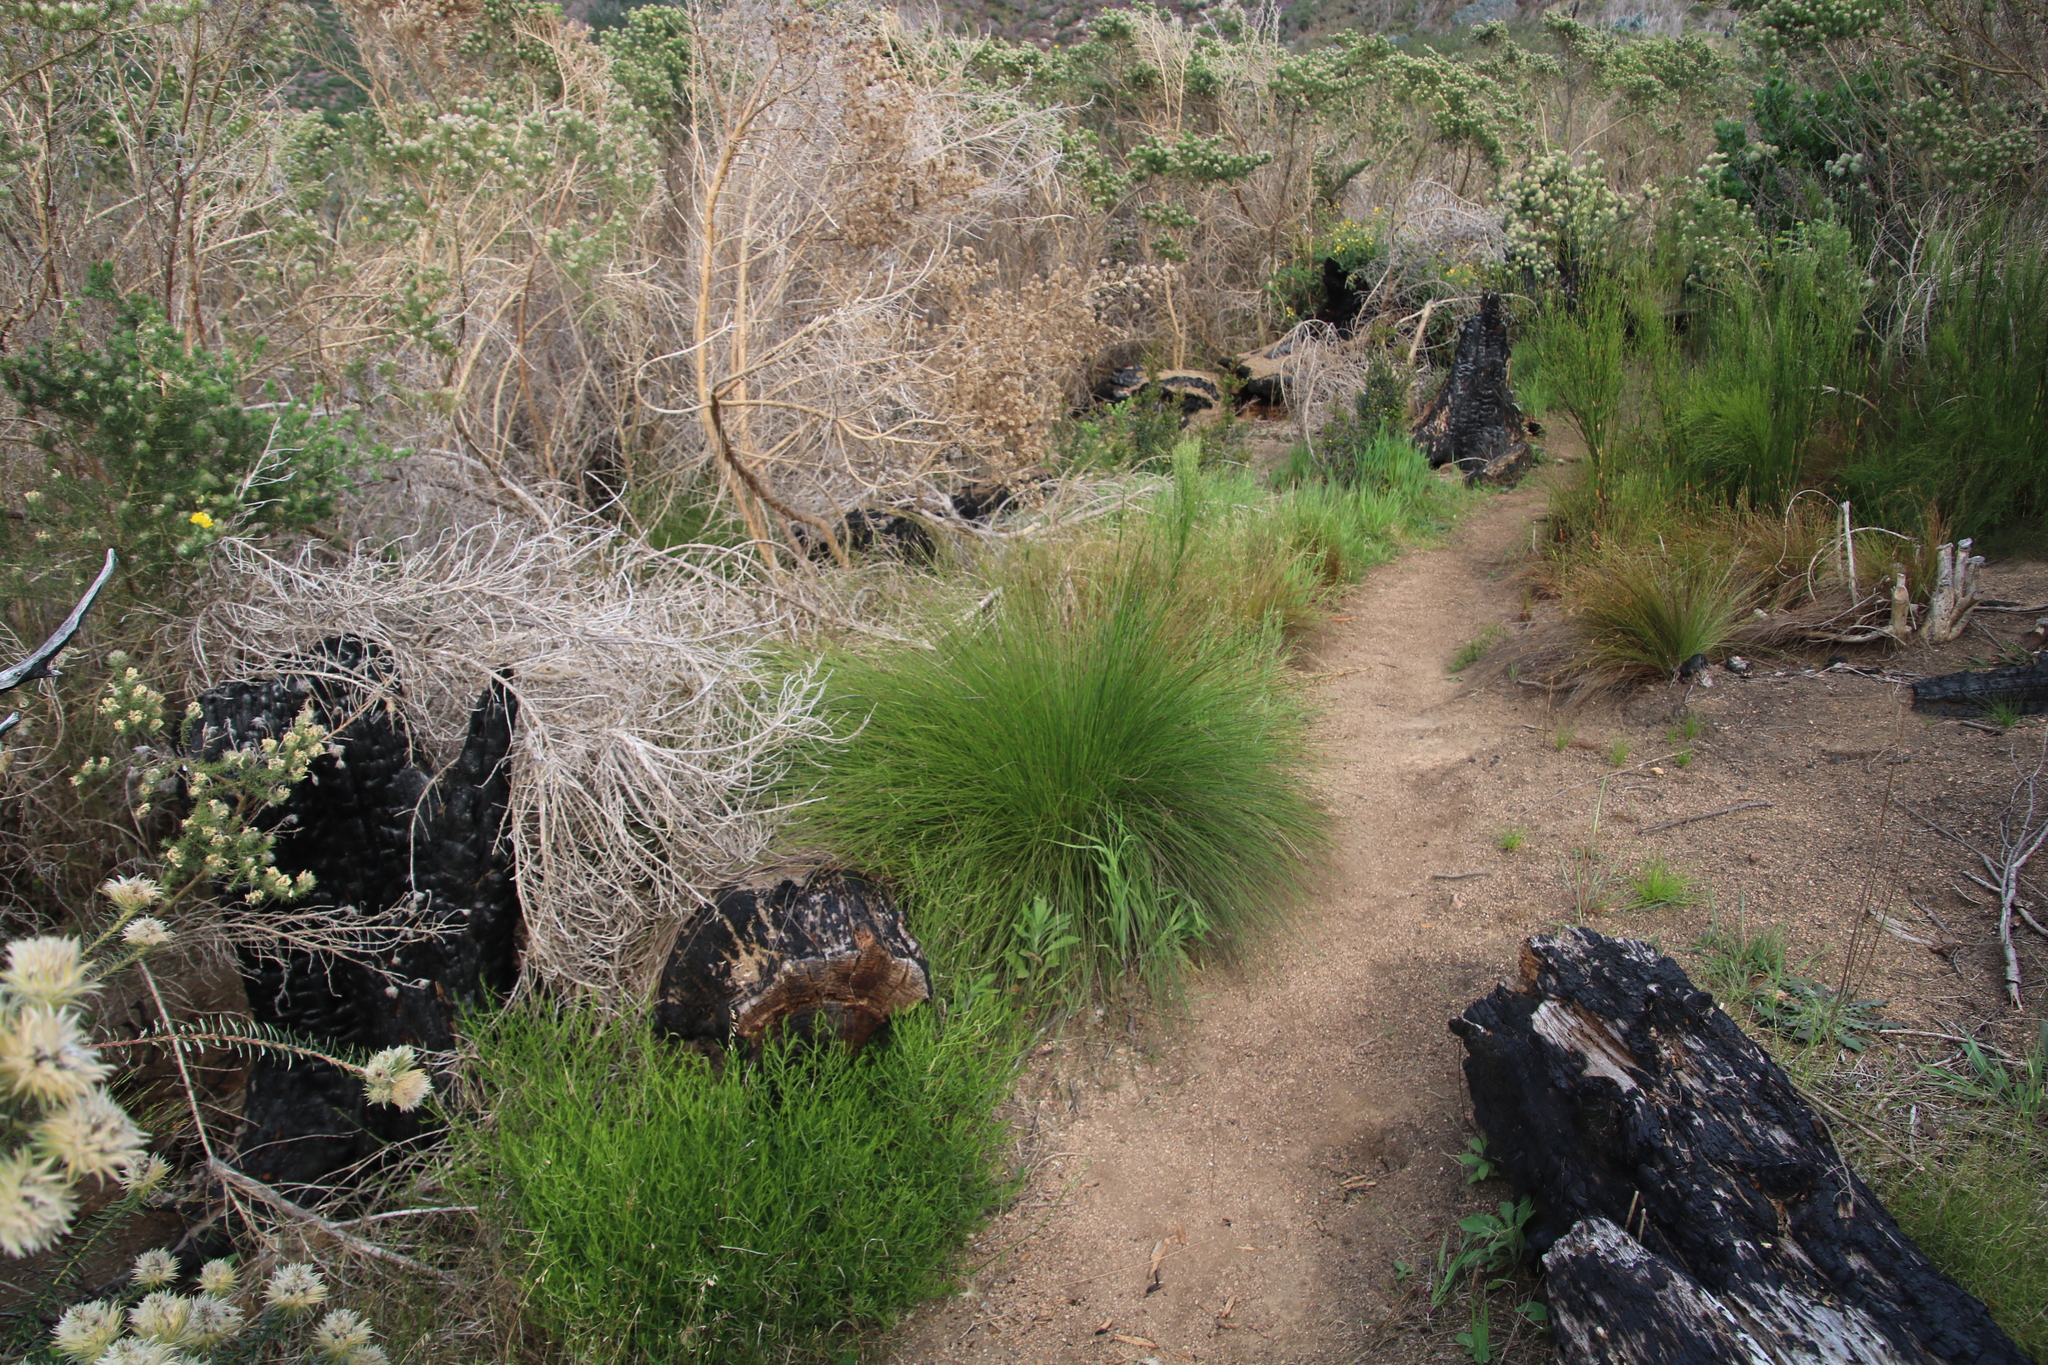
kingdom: Plantae
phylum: Tracheophyta
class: Liliopsida
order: Poales
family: Cyperaceae
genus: Schoenus
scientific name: Schoenus selinae
